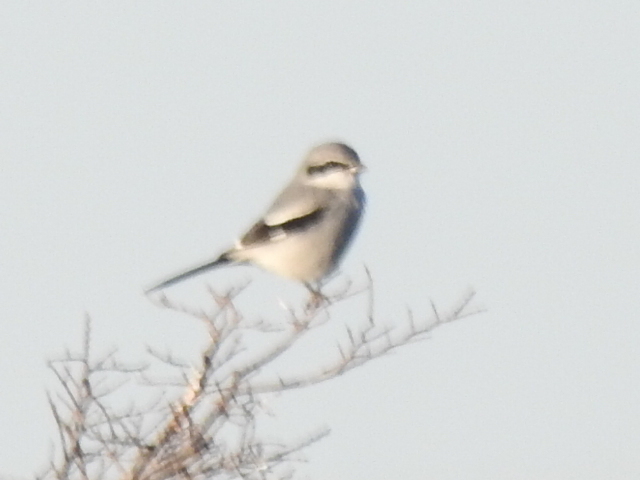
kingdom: Animalia
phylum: Chordata
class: Aves
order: Passeriformes
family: Laniidae
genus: Lanius
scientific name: Lanius ludovicianus
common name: Loggerhead shrike
